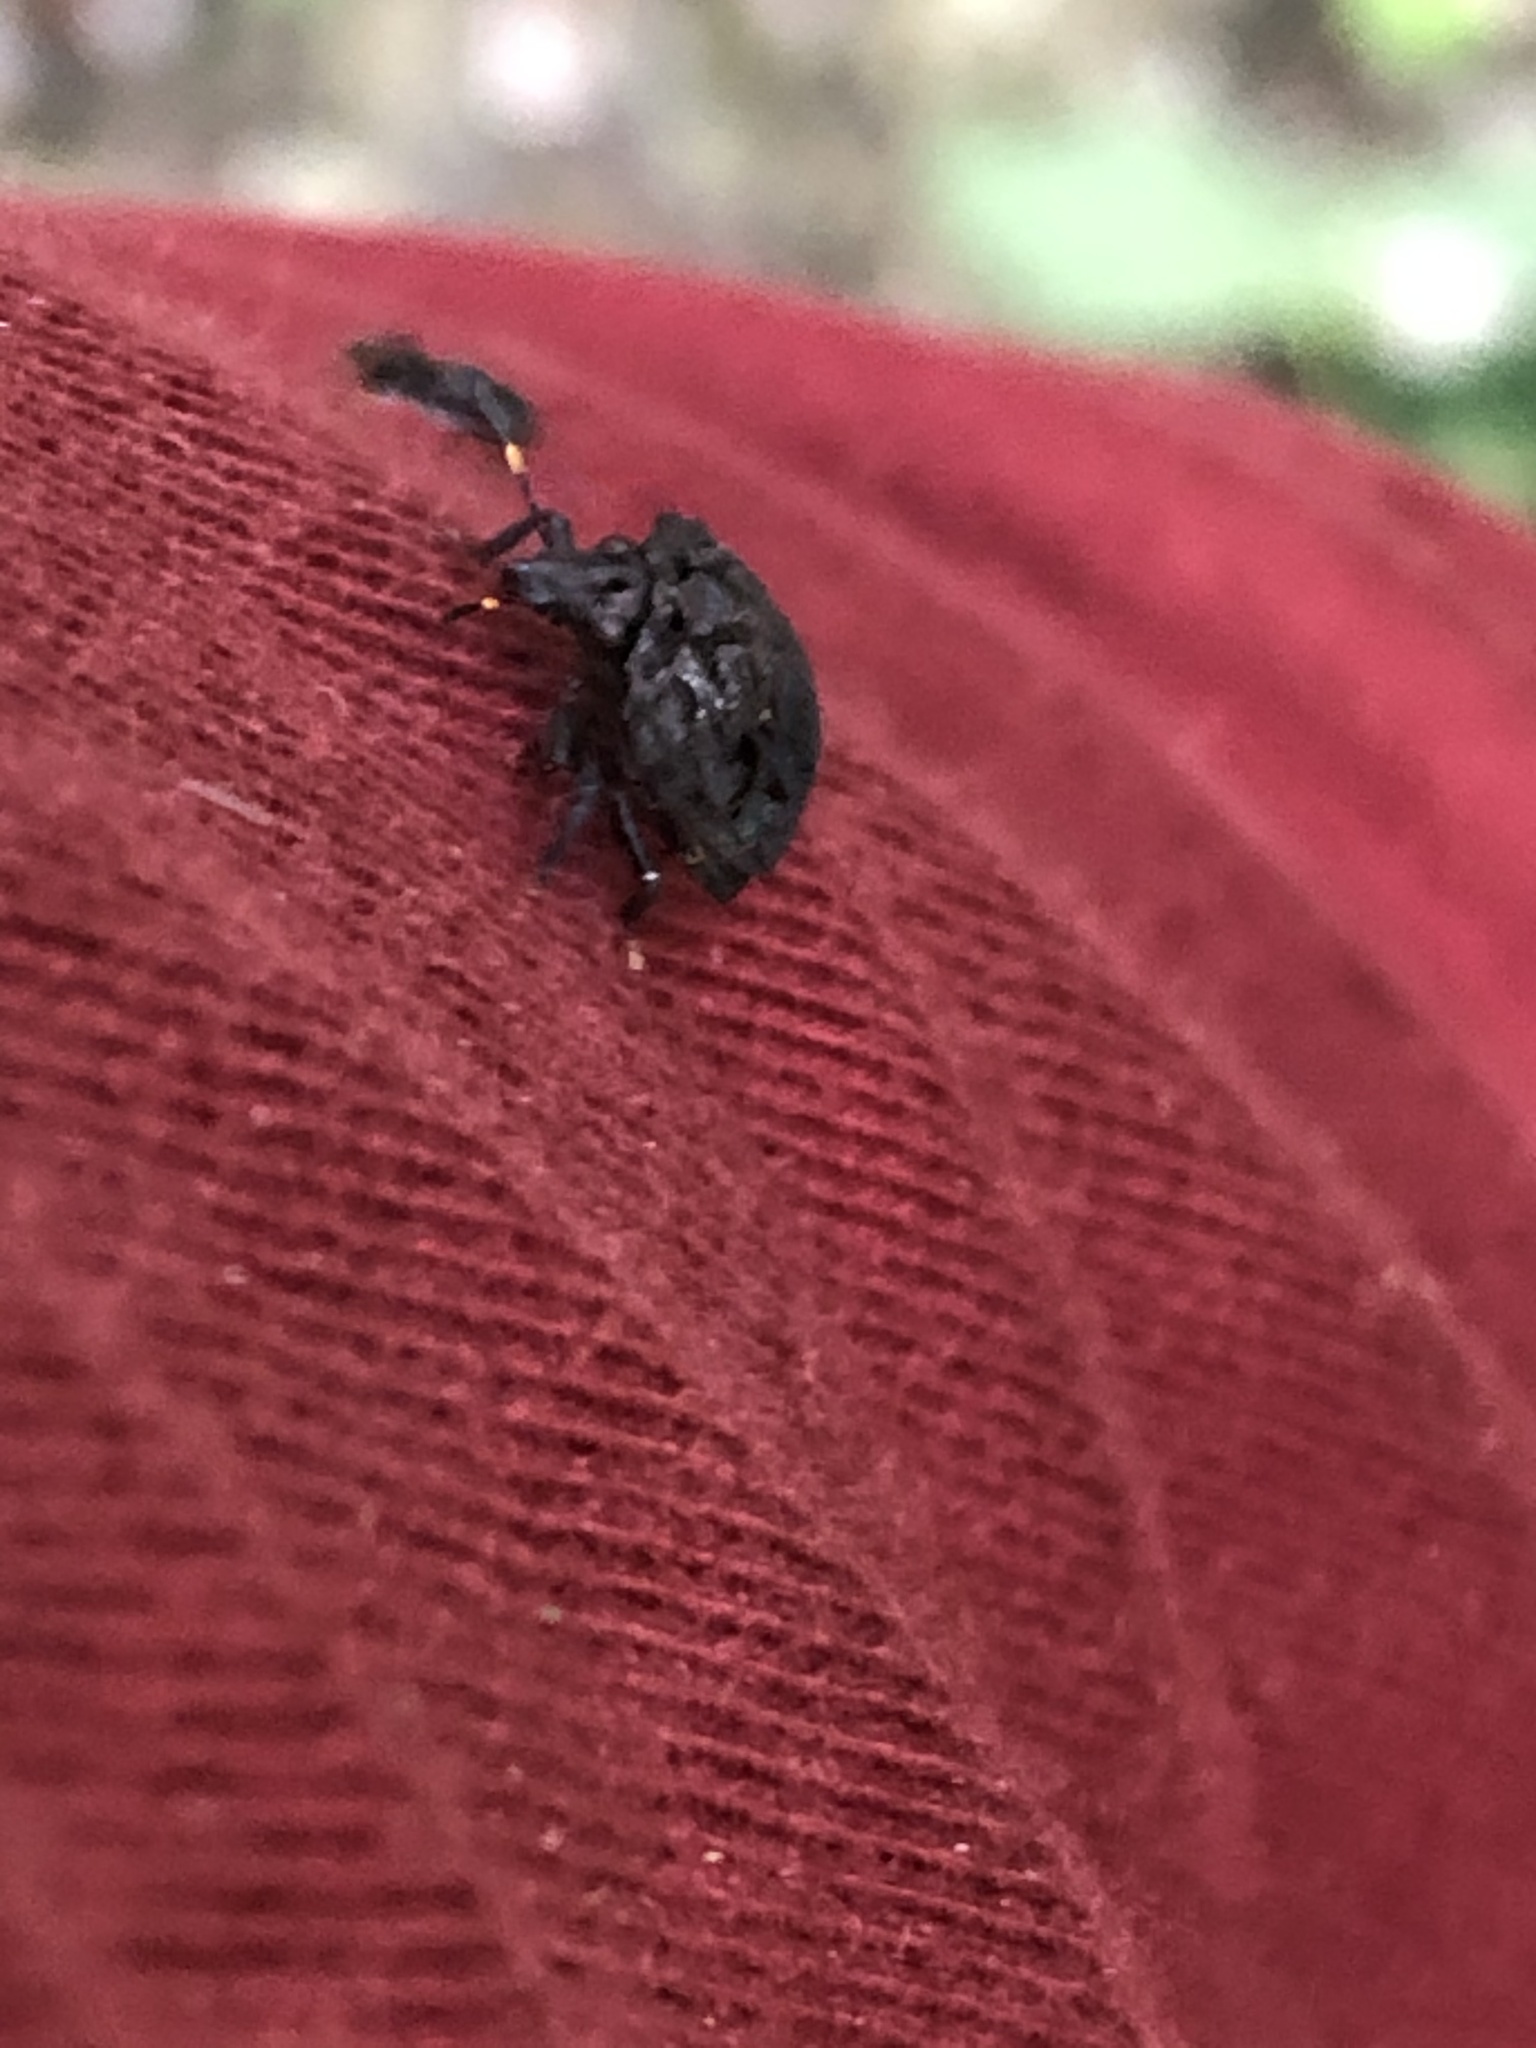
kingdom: Animalia
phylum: Arthropoda
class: Insecta
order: Hemiptera
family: Scutelleridae
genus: Crathis
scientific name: Crathis longifrons
